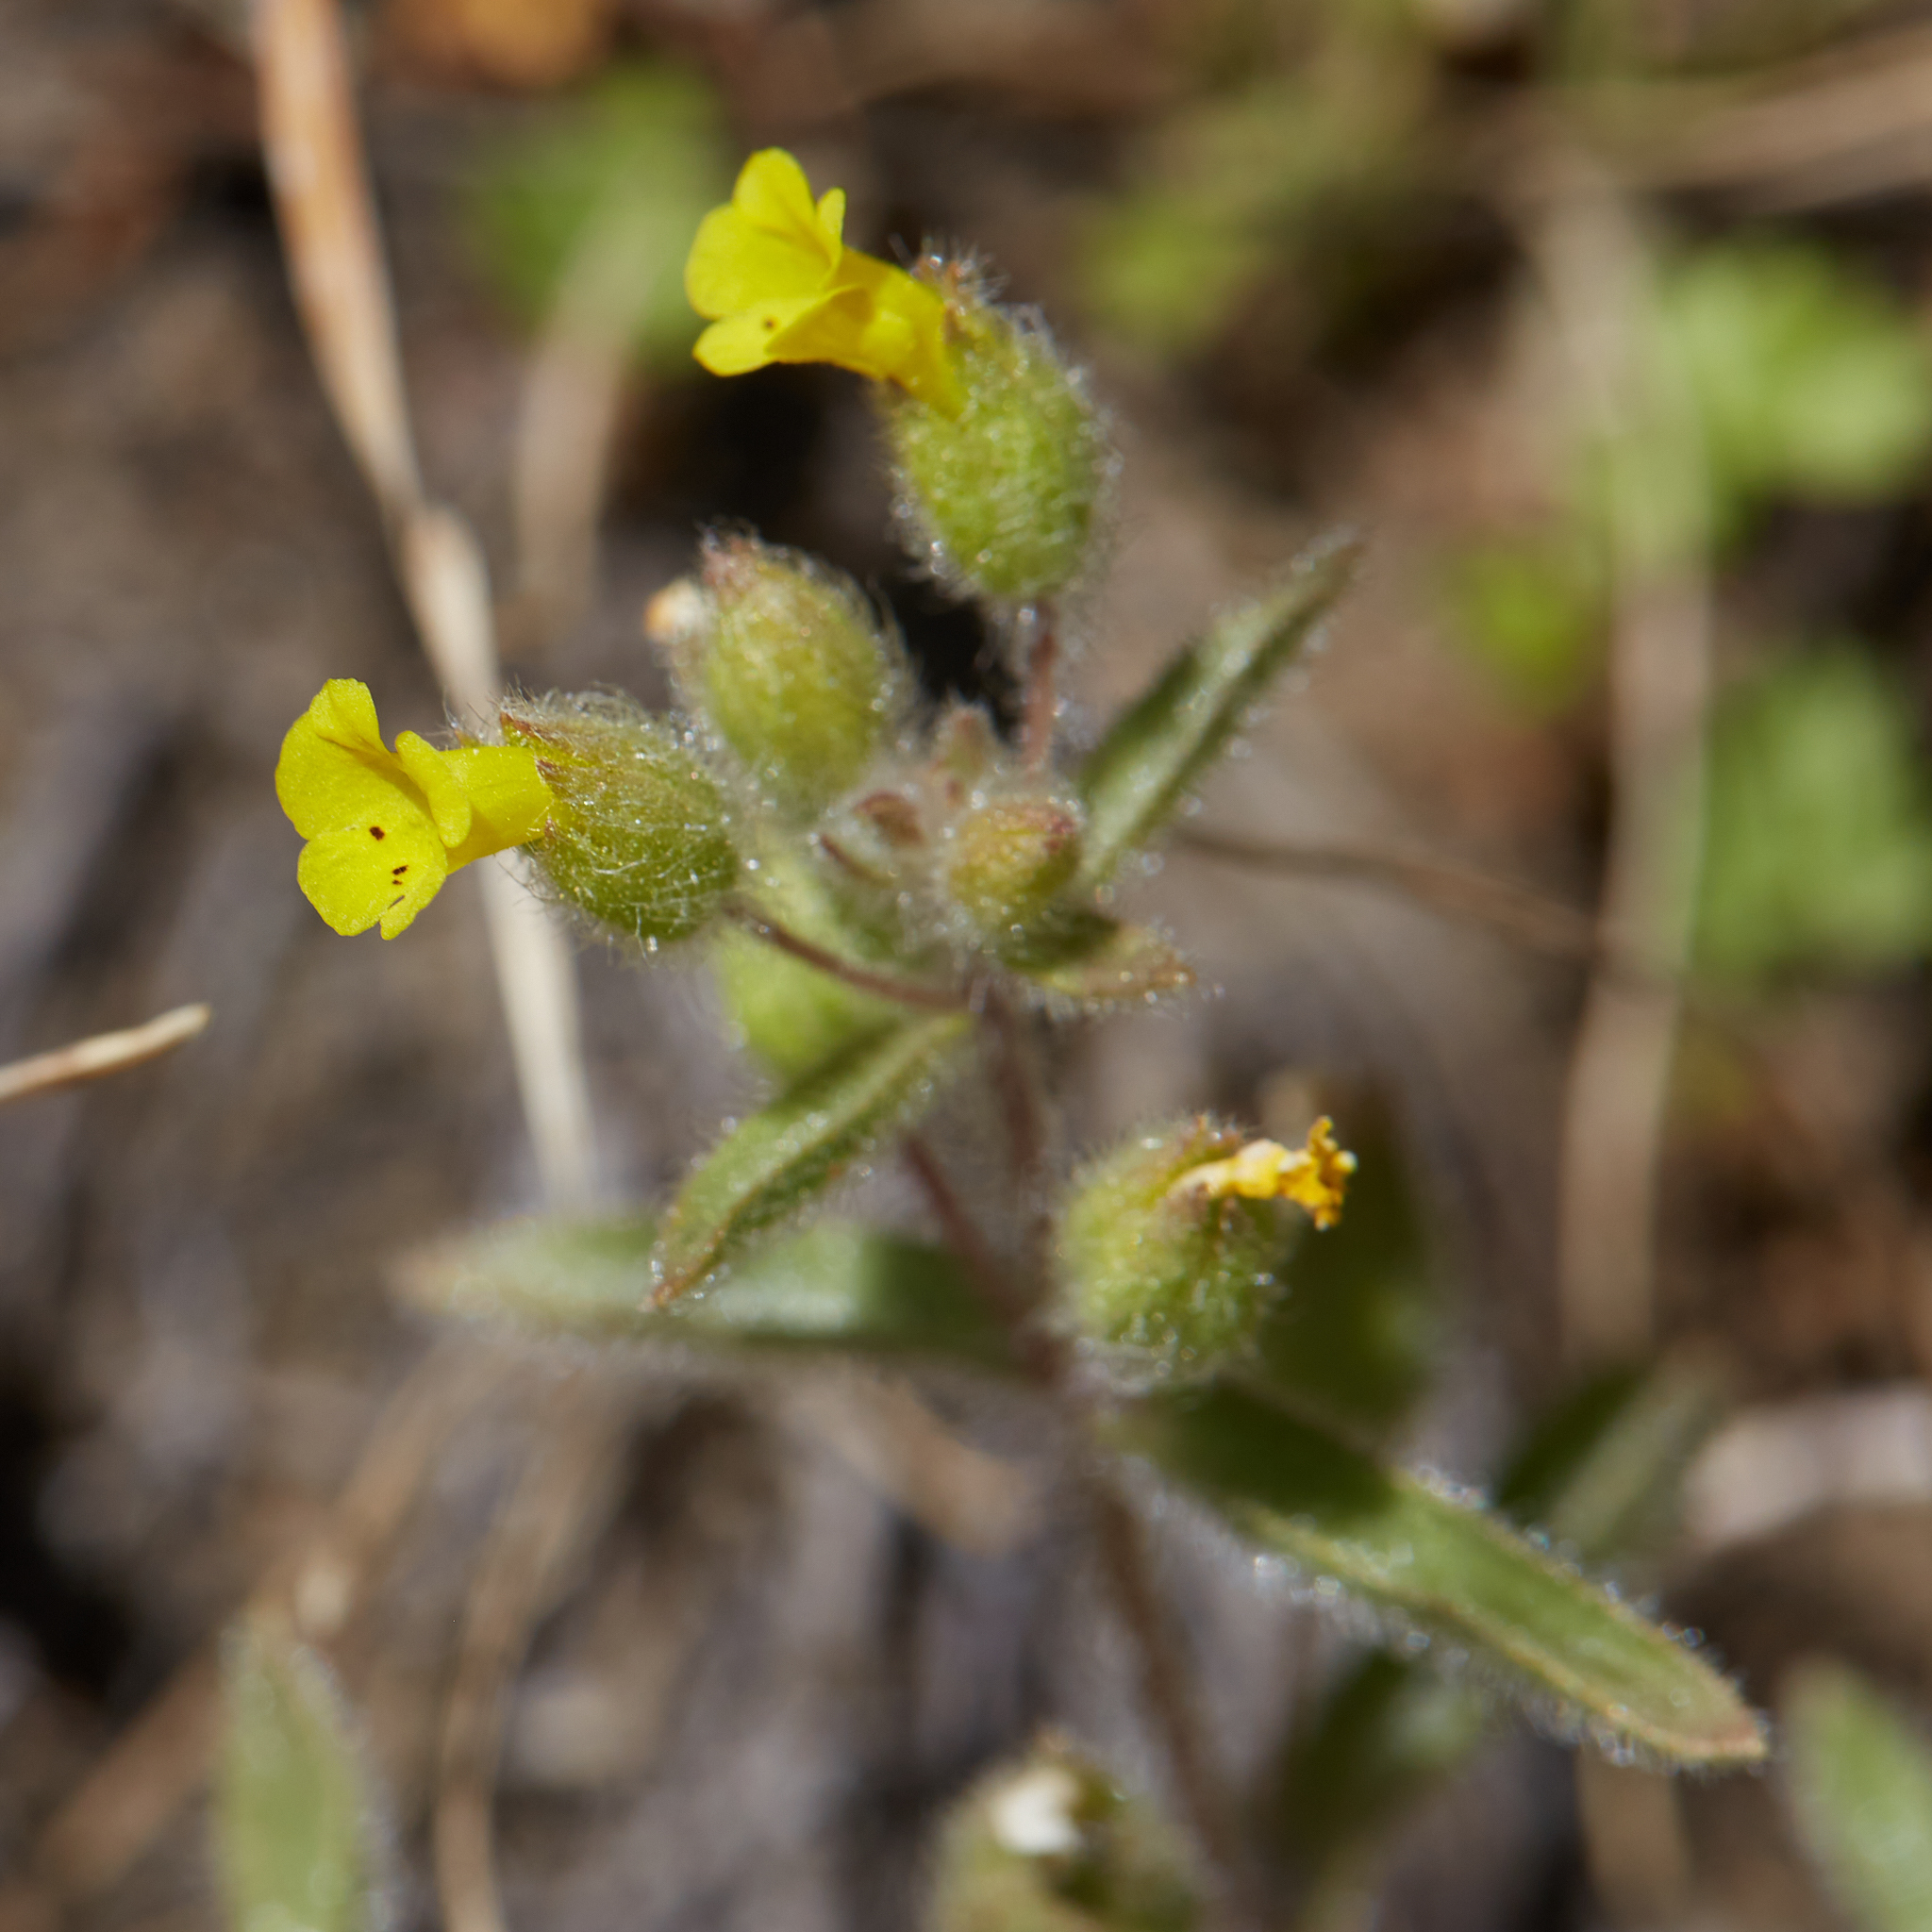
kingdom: Plantae
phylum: Tracheophyta
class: Magnoliopsida
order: Lamiales
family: Phrymaceae
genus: Mimetanthe
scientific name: Mimetanthe pilosa
